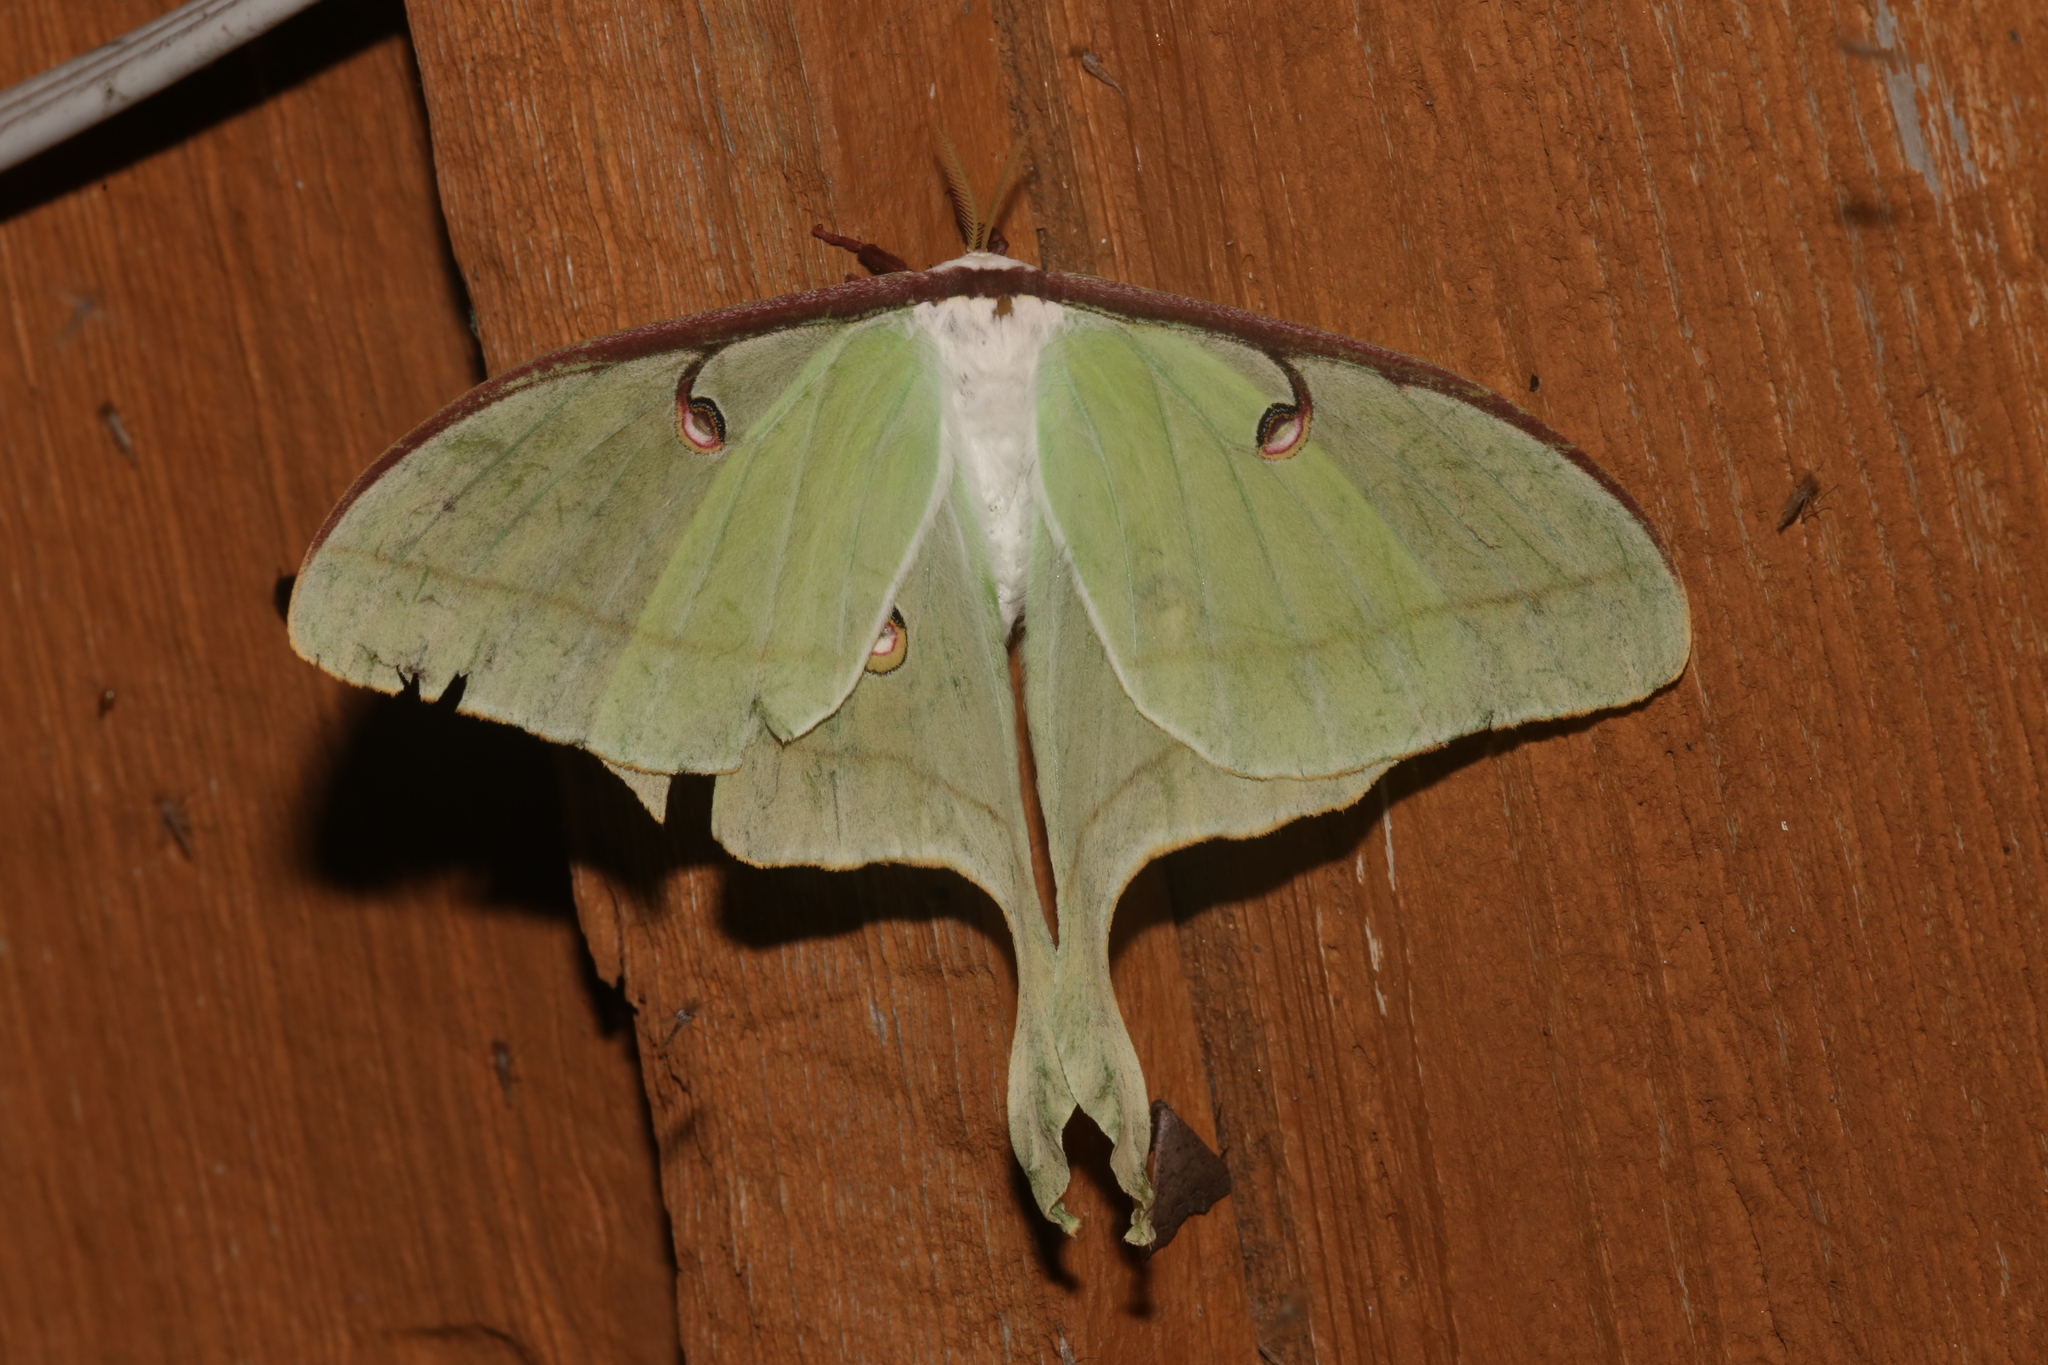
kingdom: Animalia
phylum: Arthropoda
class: Insecta
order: Lepidoptera
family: Saturniidae
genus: Actias
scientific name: Actias luna
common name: Luna moth
